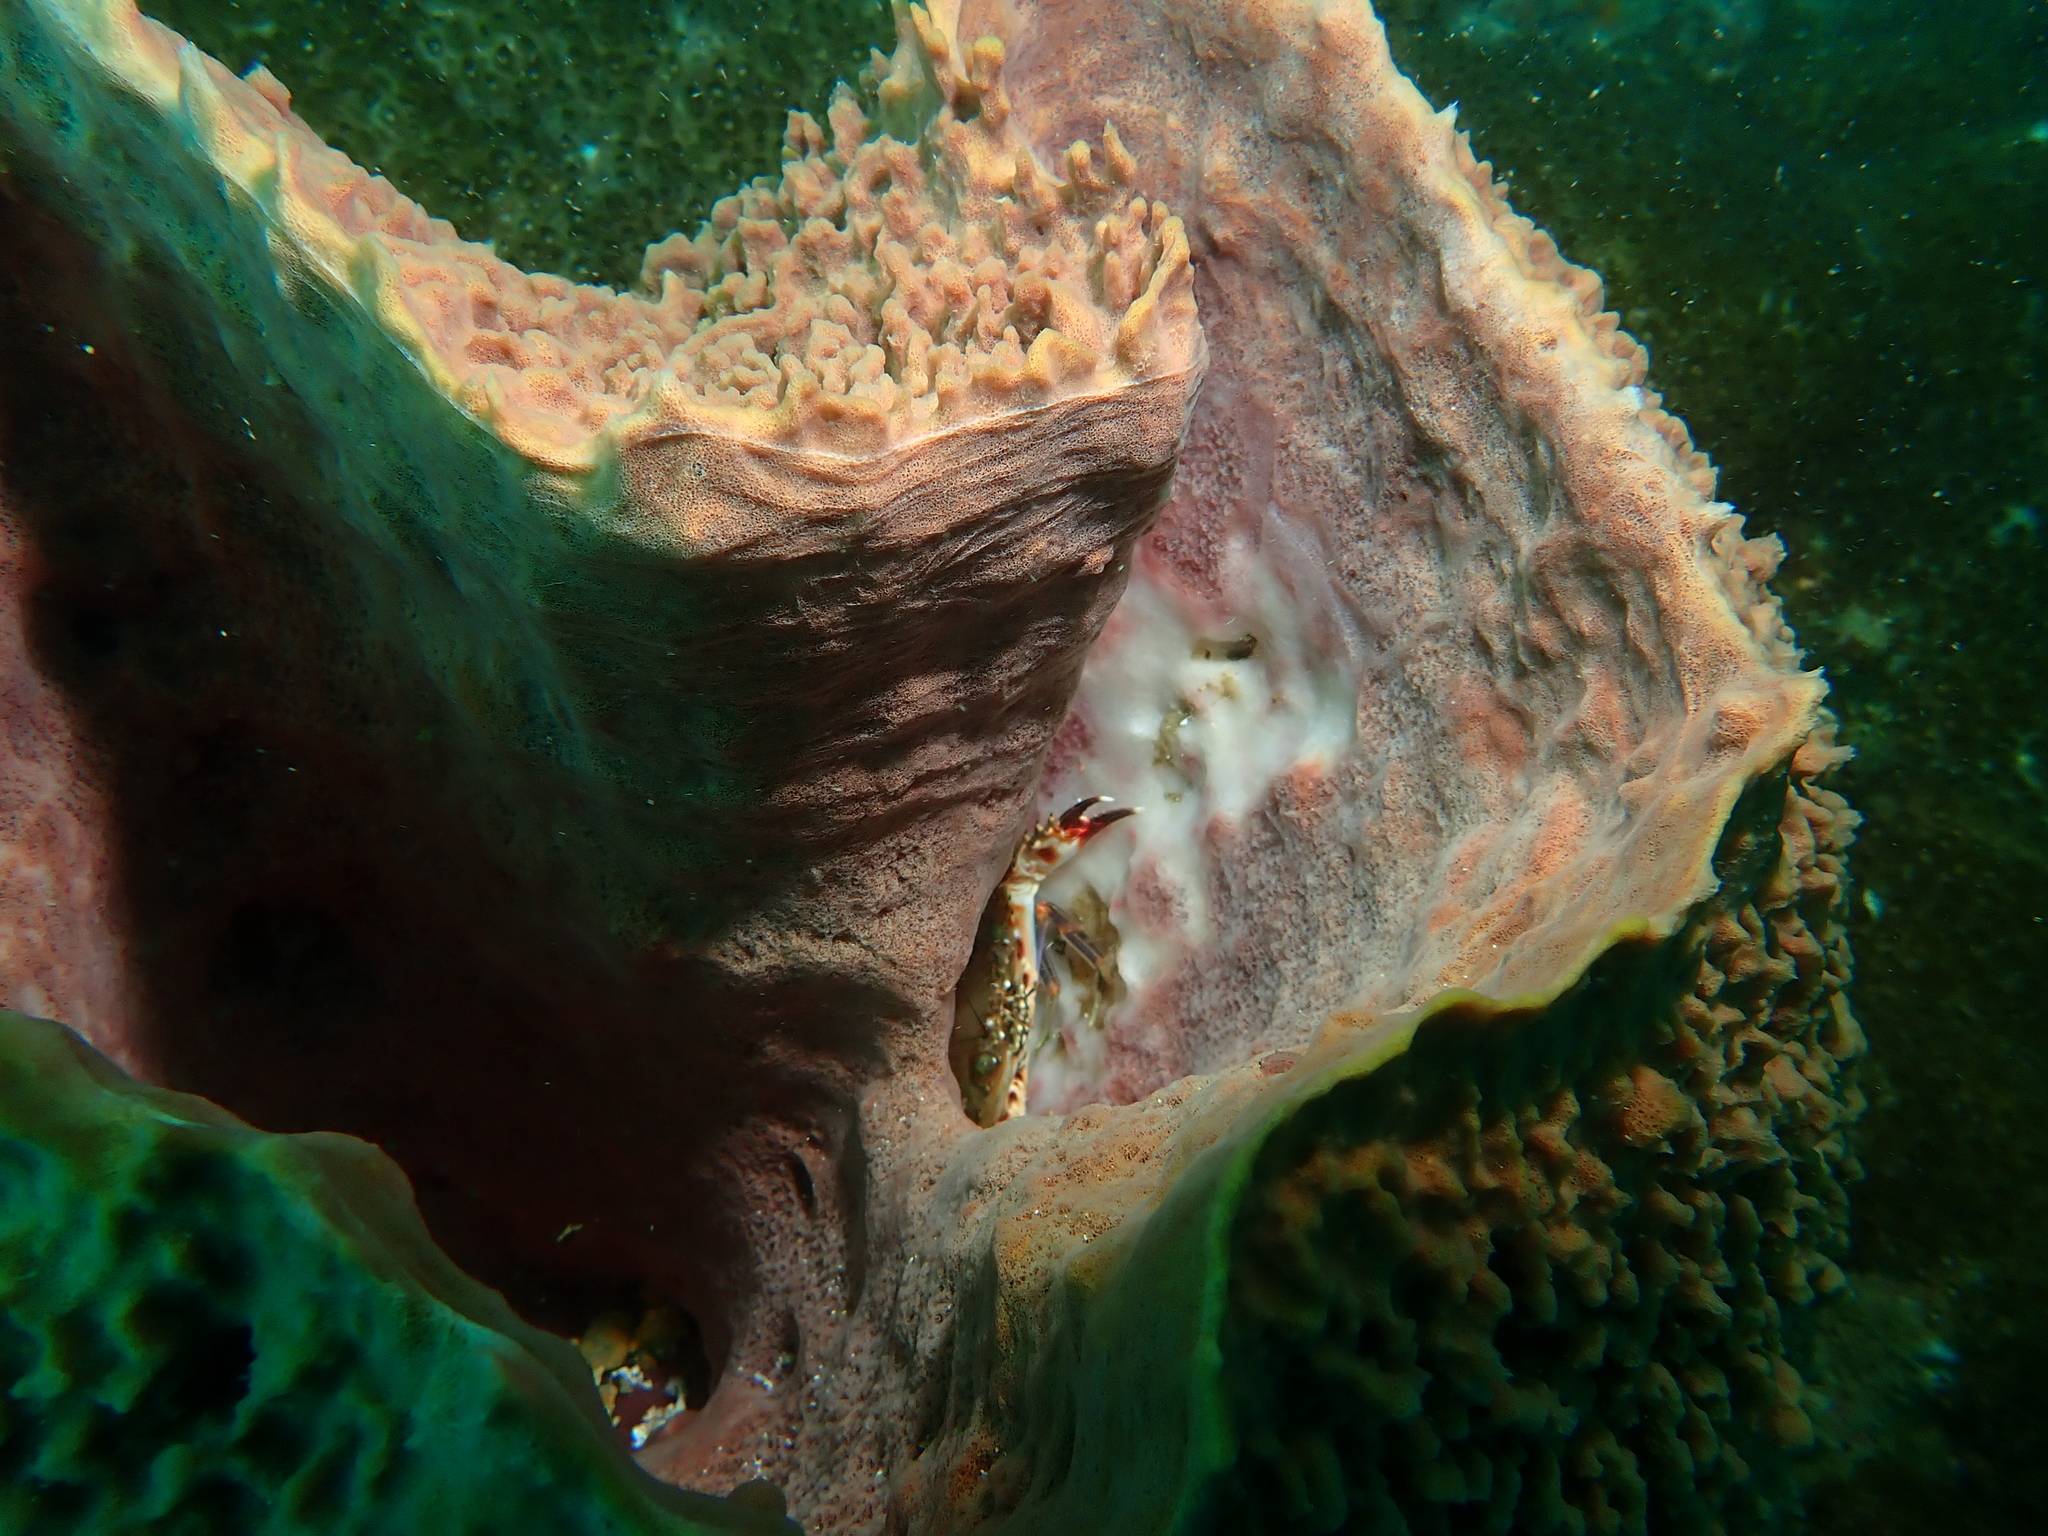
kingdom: Animalia
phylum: Arthropoda
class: Malacostraca
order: Decapoda
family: Portunidae
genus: Goniosupradens
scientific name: Goniosupradens acutifrons
